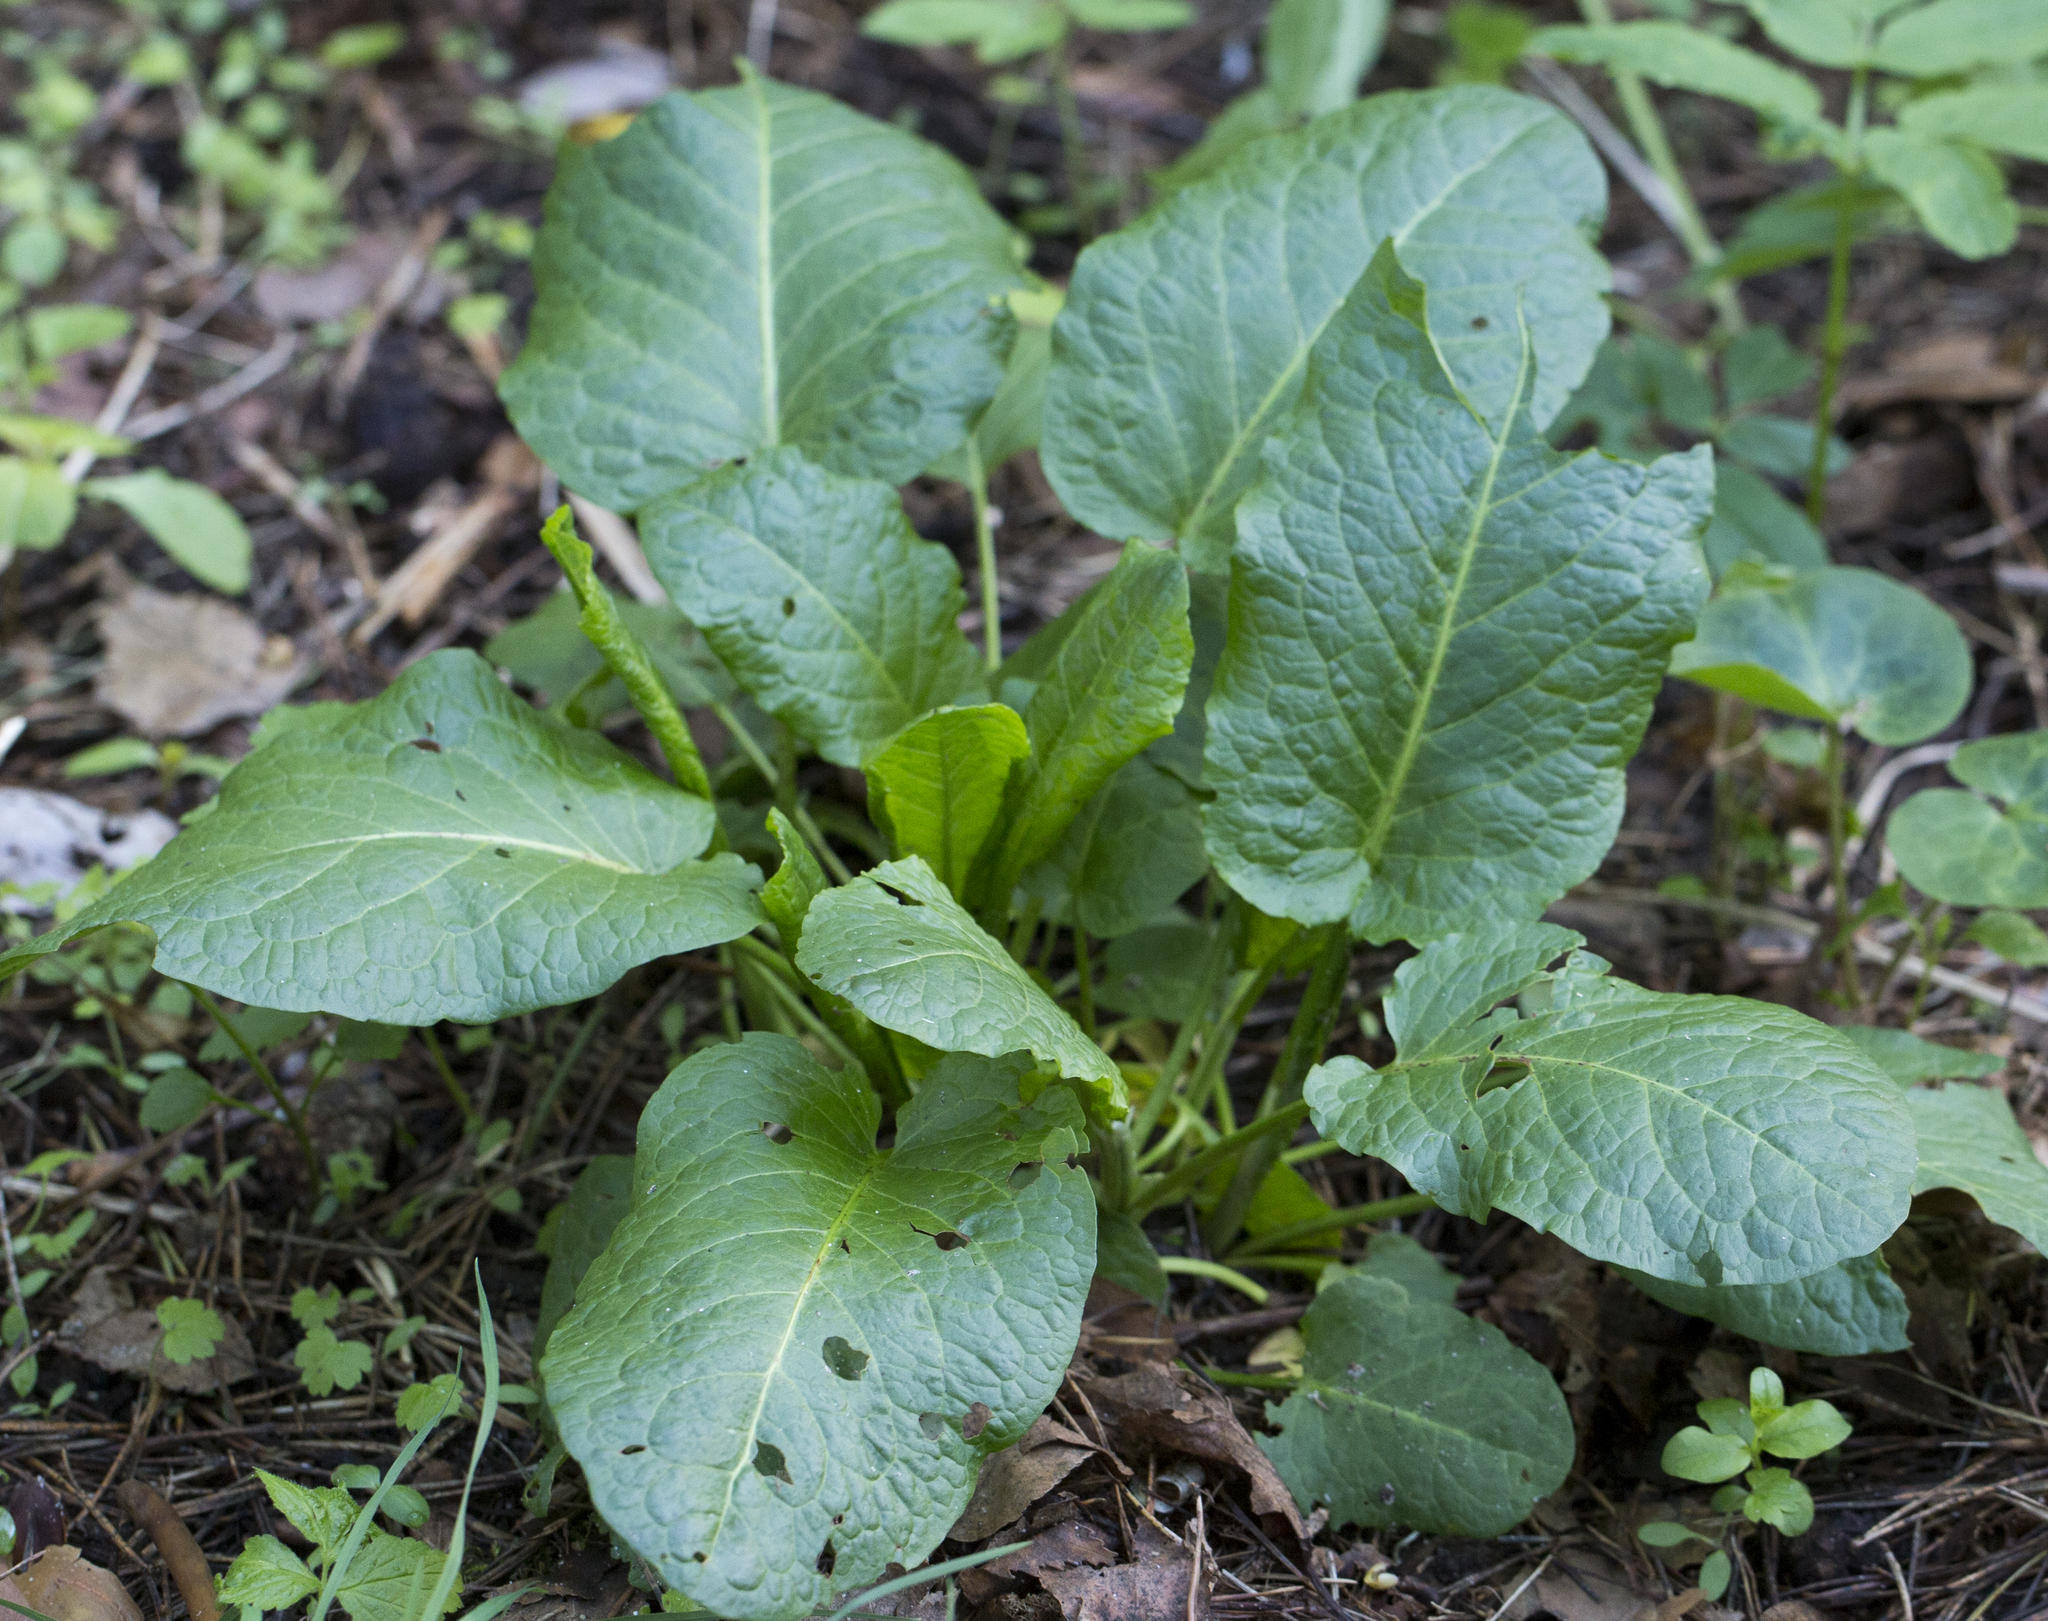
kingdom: Plantae
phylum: Tracheophyta
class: Magnoliopsida
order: Caryophyllales
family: Polygonaceae
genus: Rumex
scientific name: Rumex obtusifolius
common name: Bitter dock
